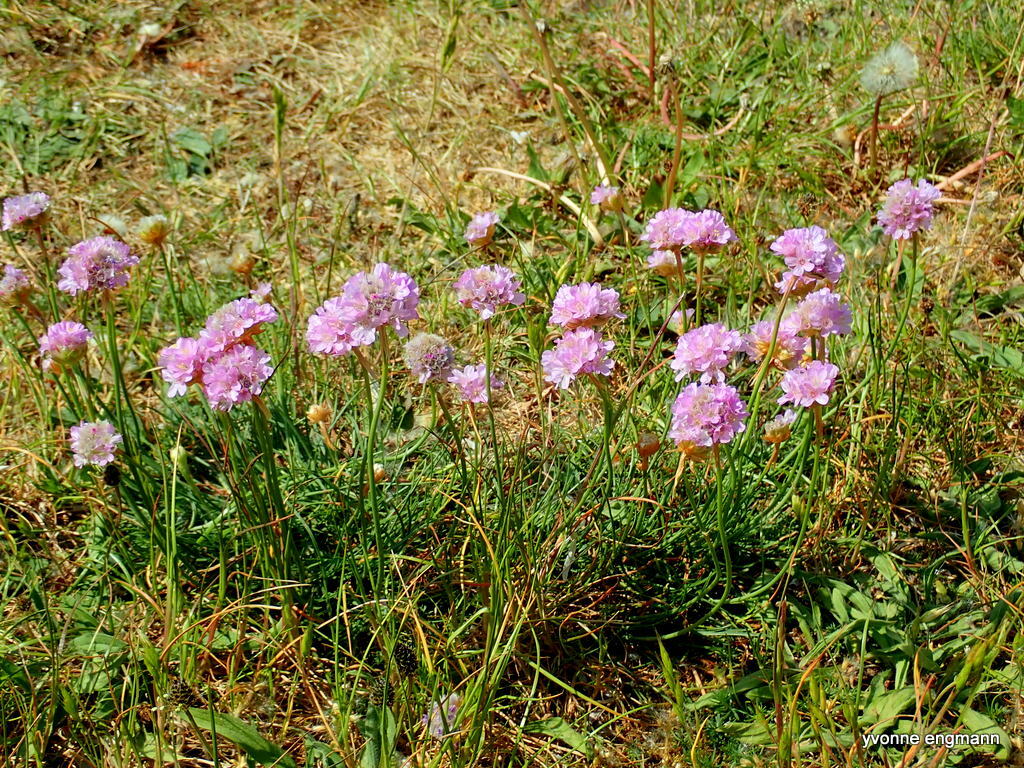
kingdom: Plantae
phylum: Tracheophyta
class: Magnoliopsida
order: Caryophyllales
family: Plumbaginaceae
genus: Armeria
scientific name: Armeria maritima
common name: Thrift
